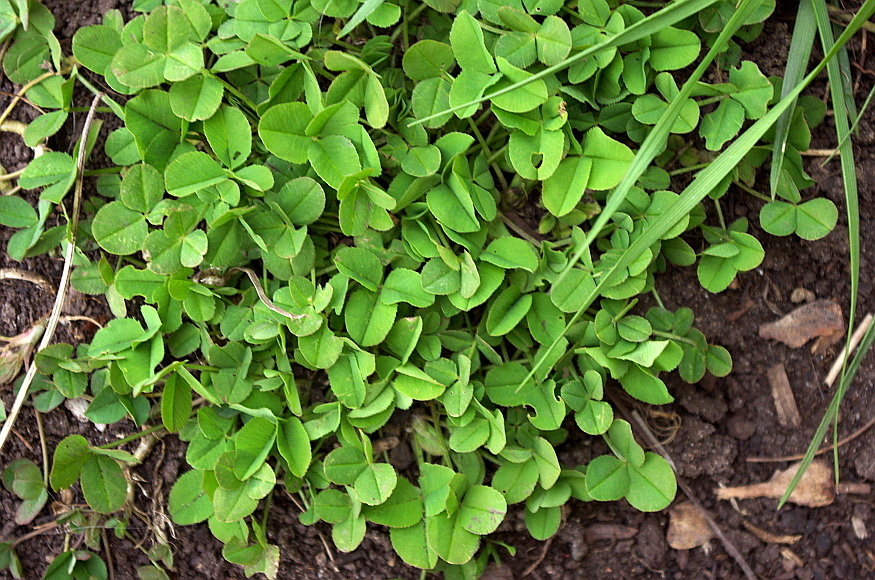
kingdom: Plantae
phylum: Tracheophyta
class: Magnoliopsida
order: Fabales
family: Fabaceae
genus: Trifolium
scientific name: Trifolium repens
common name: White clover
